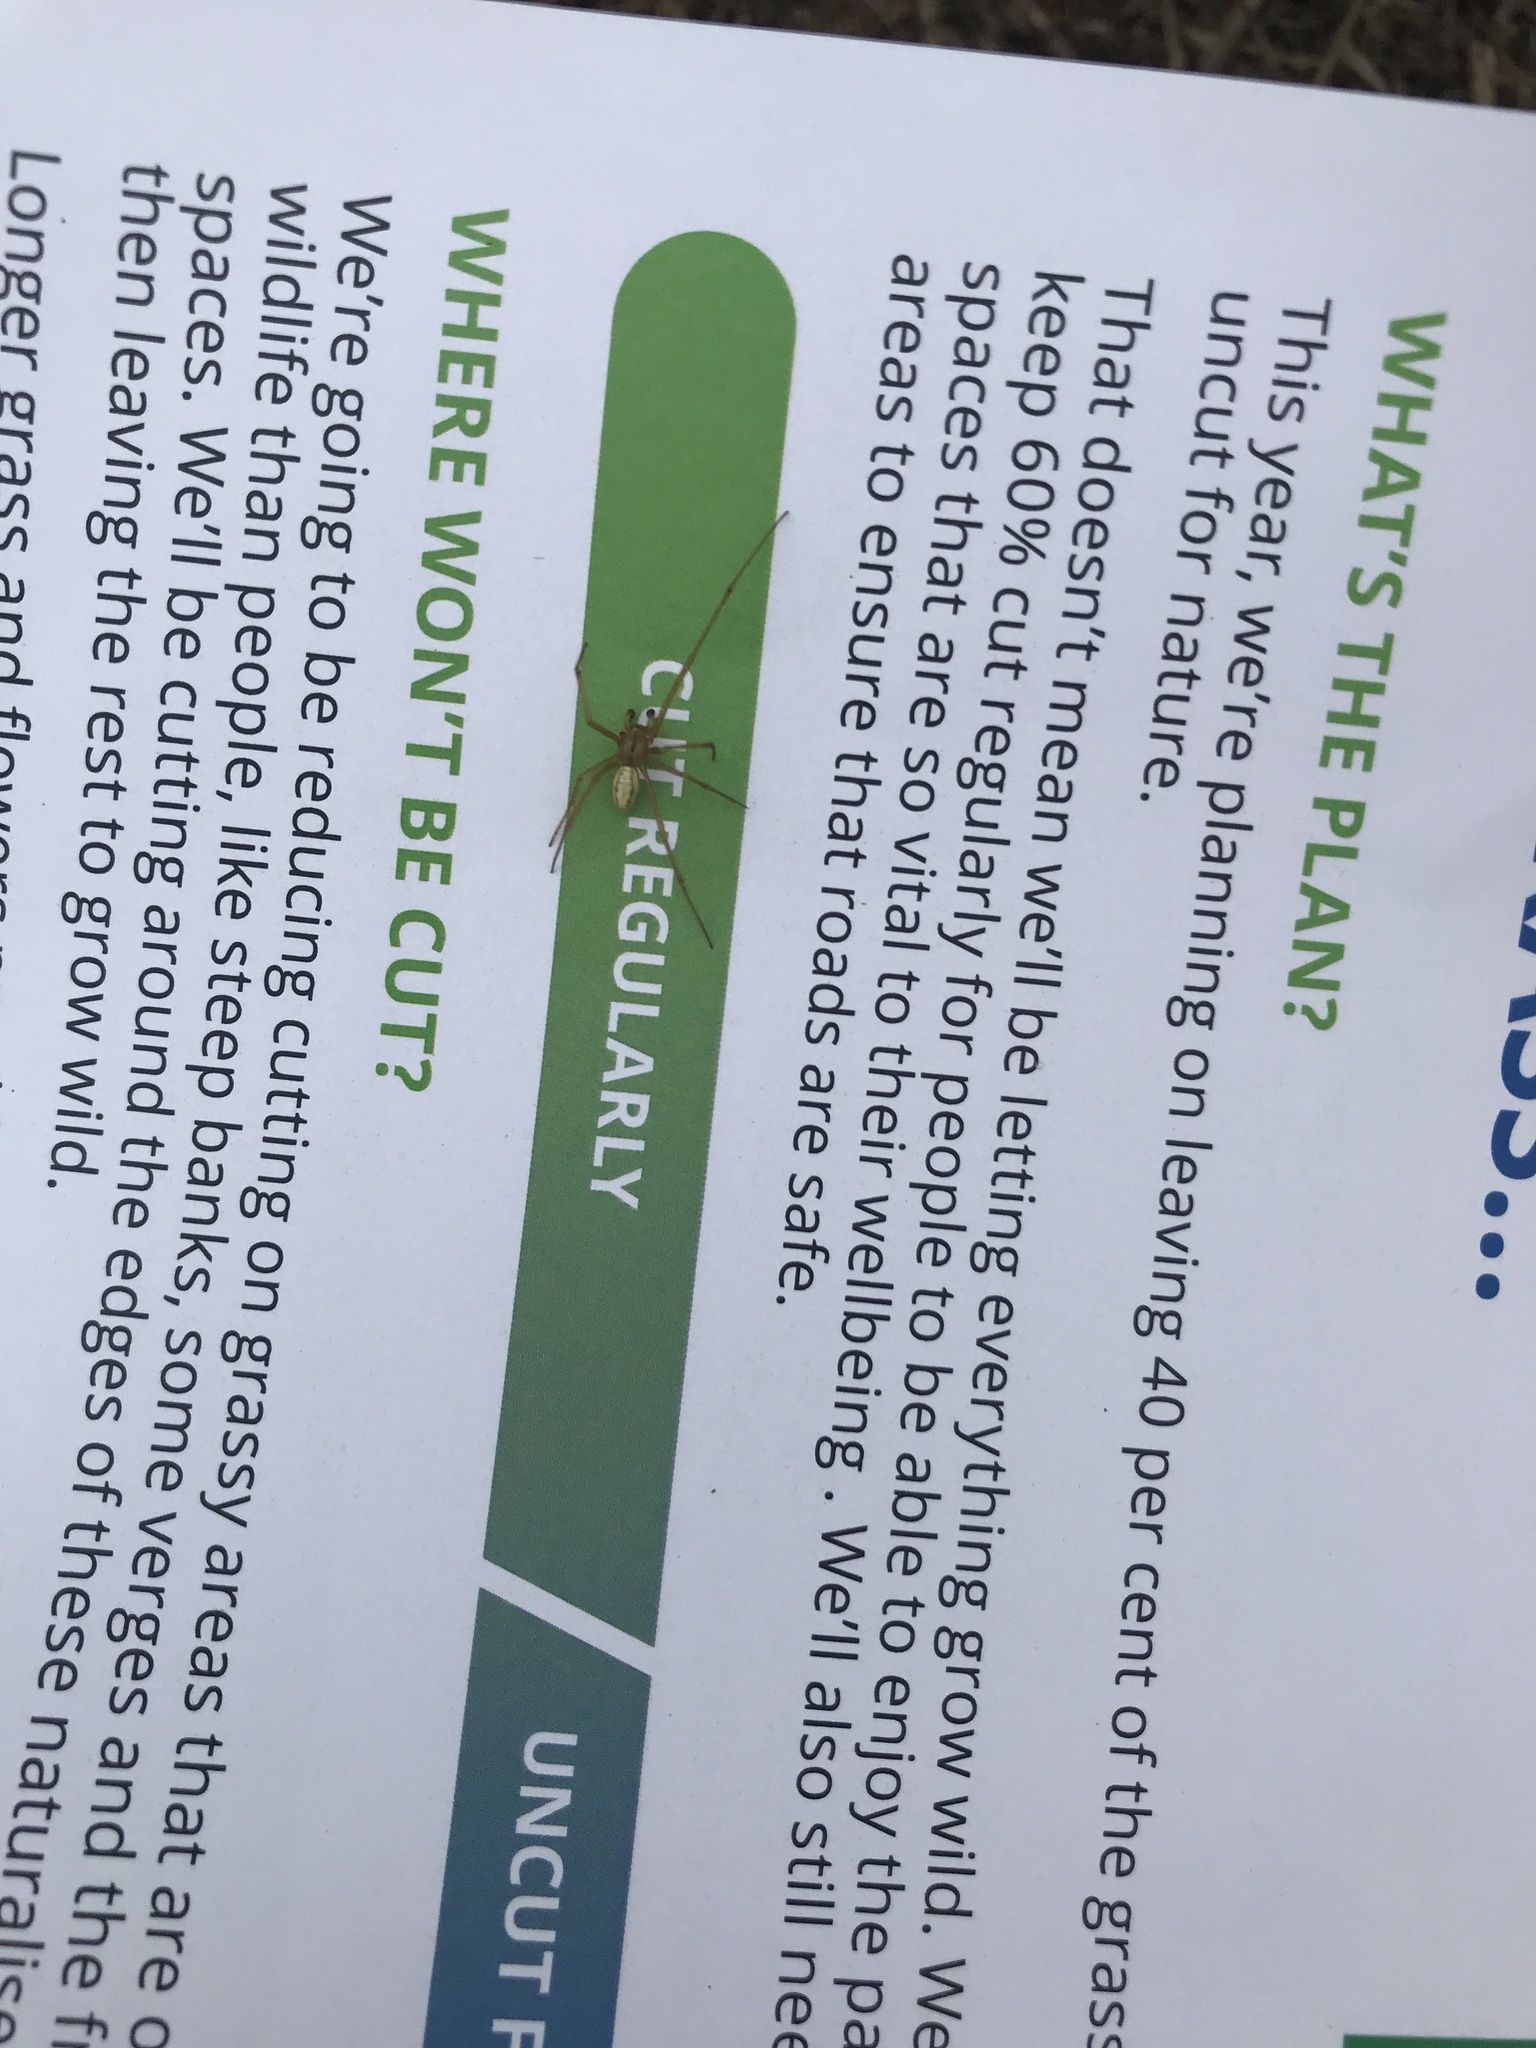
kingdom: Animalia
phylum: Arthropoda
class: Arachnida
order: Araneae
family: Theridiidae
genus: Enoplognatha
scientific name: Enoplognatha ovata
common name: Common candy-striped spider
